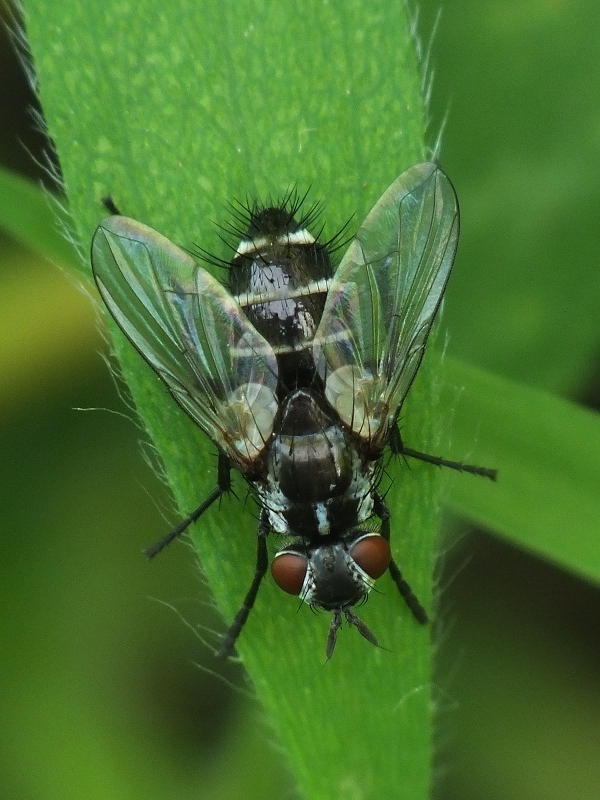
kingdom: Animalia
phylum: Arthropoda
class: Insecta
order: Diptera
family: Tachinidae
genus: Admontia
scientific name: Admontia blanda
